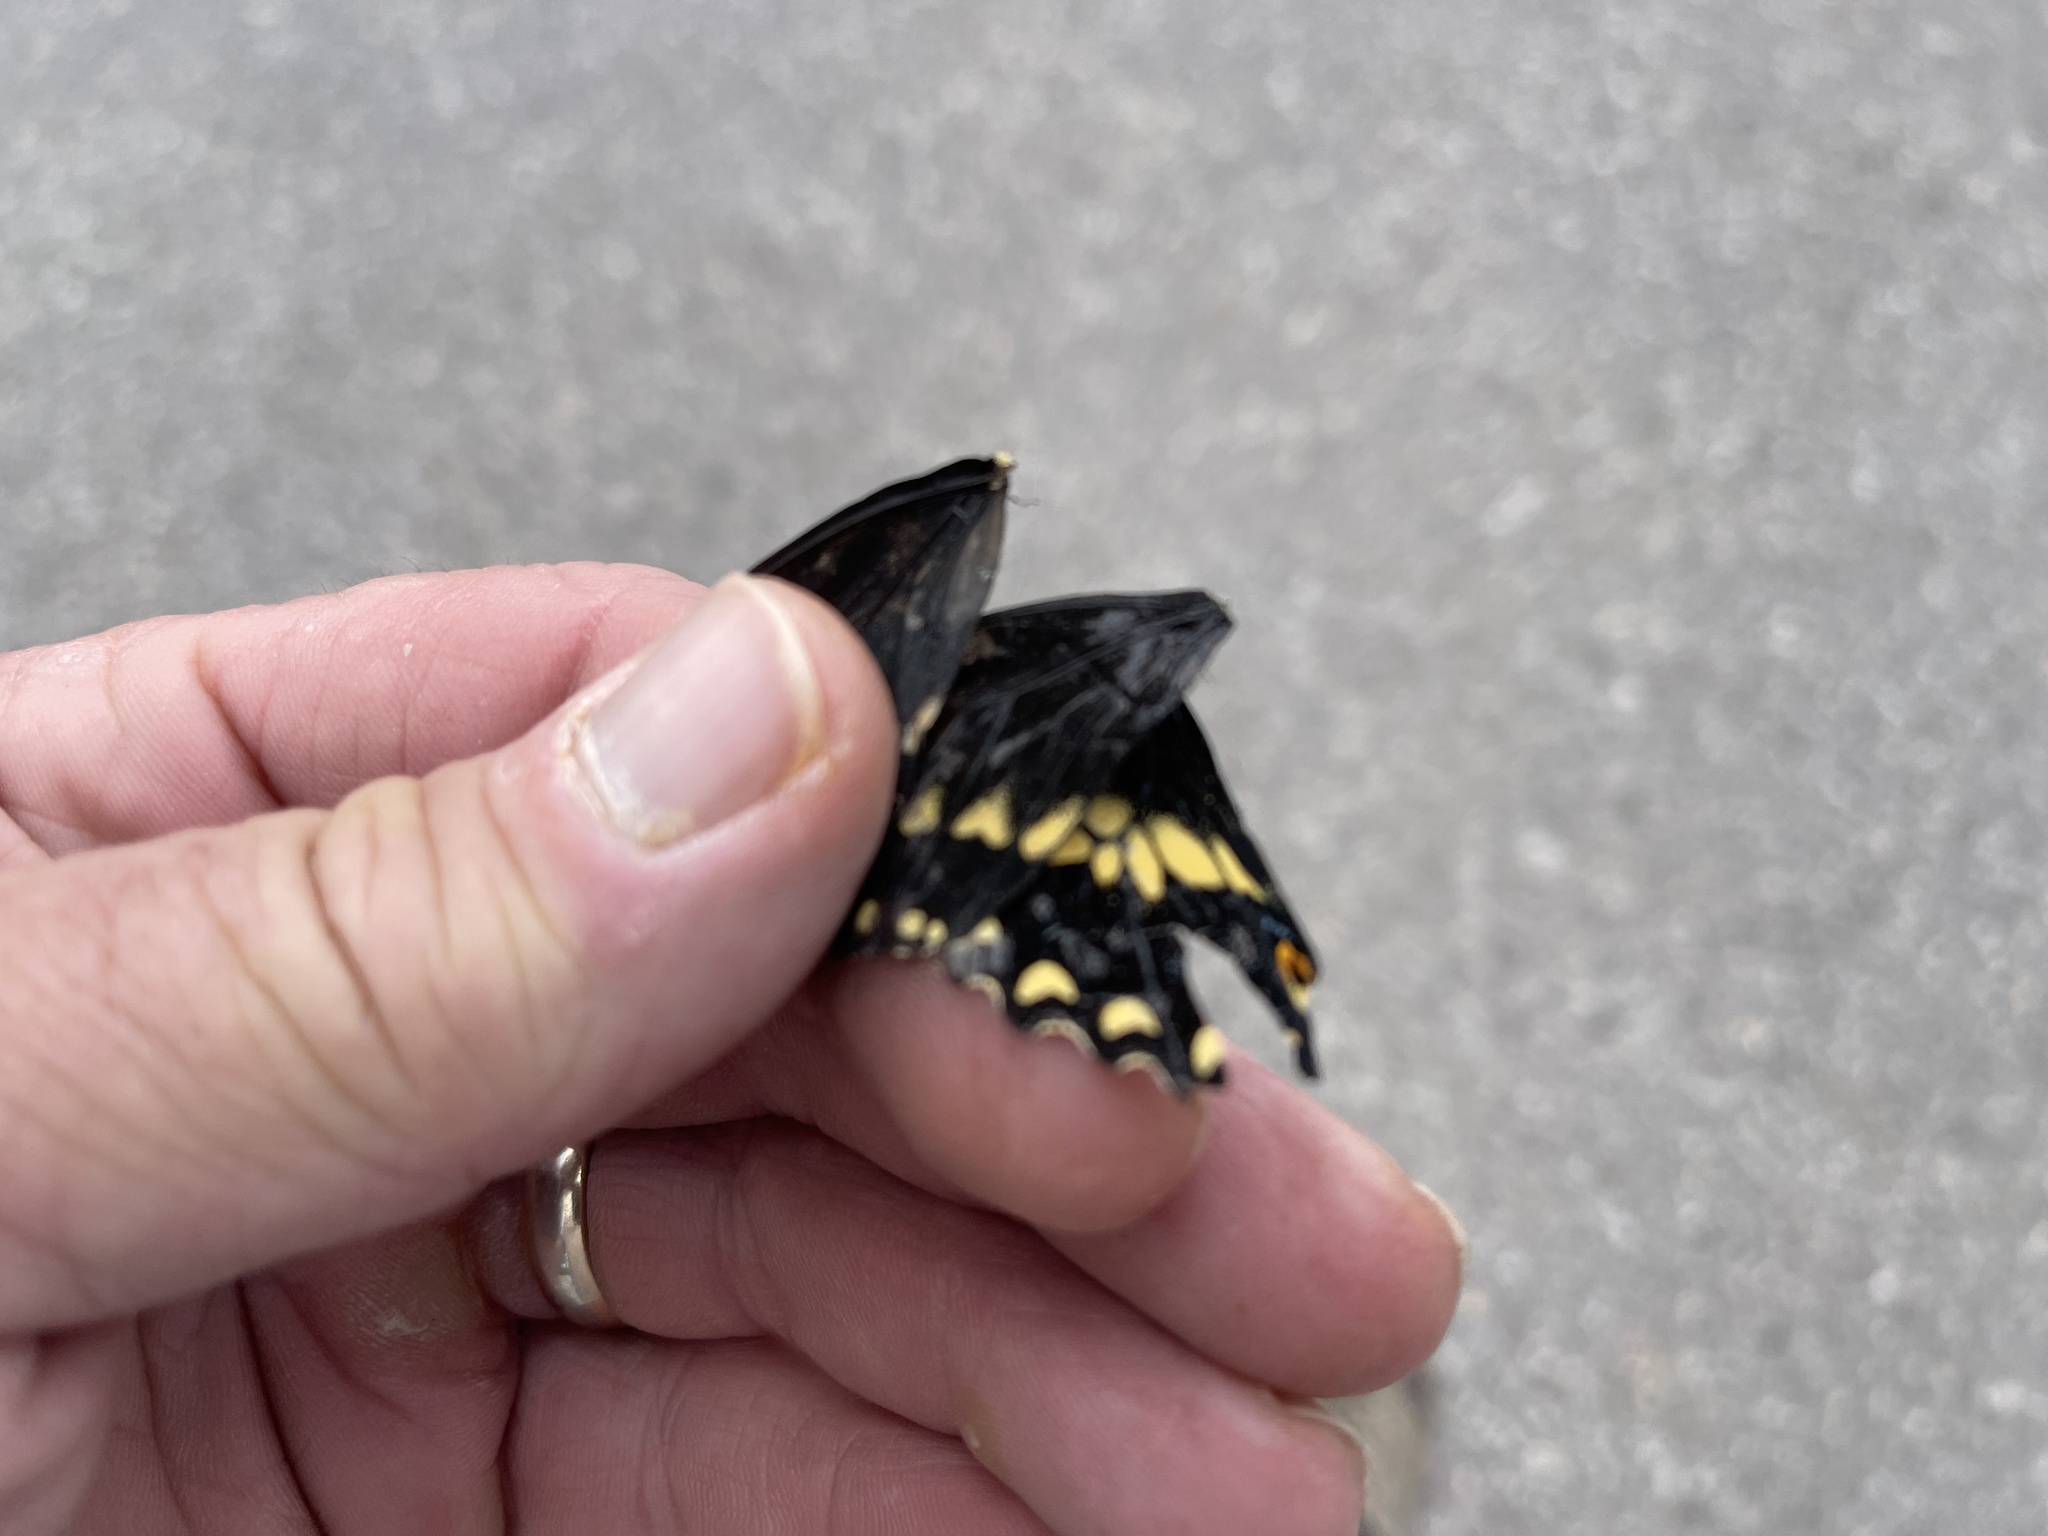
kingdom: Animalia
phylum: Arthropoda
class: Insecta
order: Lepidoptera
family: Papilionidae
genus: Papilio
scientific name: Papilio polyxenes
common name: Black swallowtail
